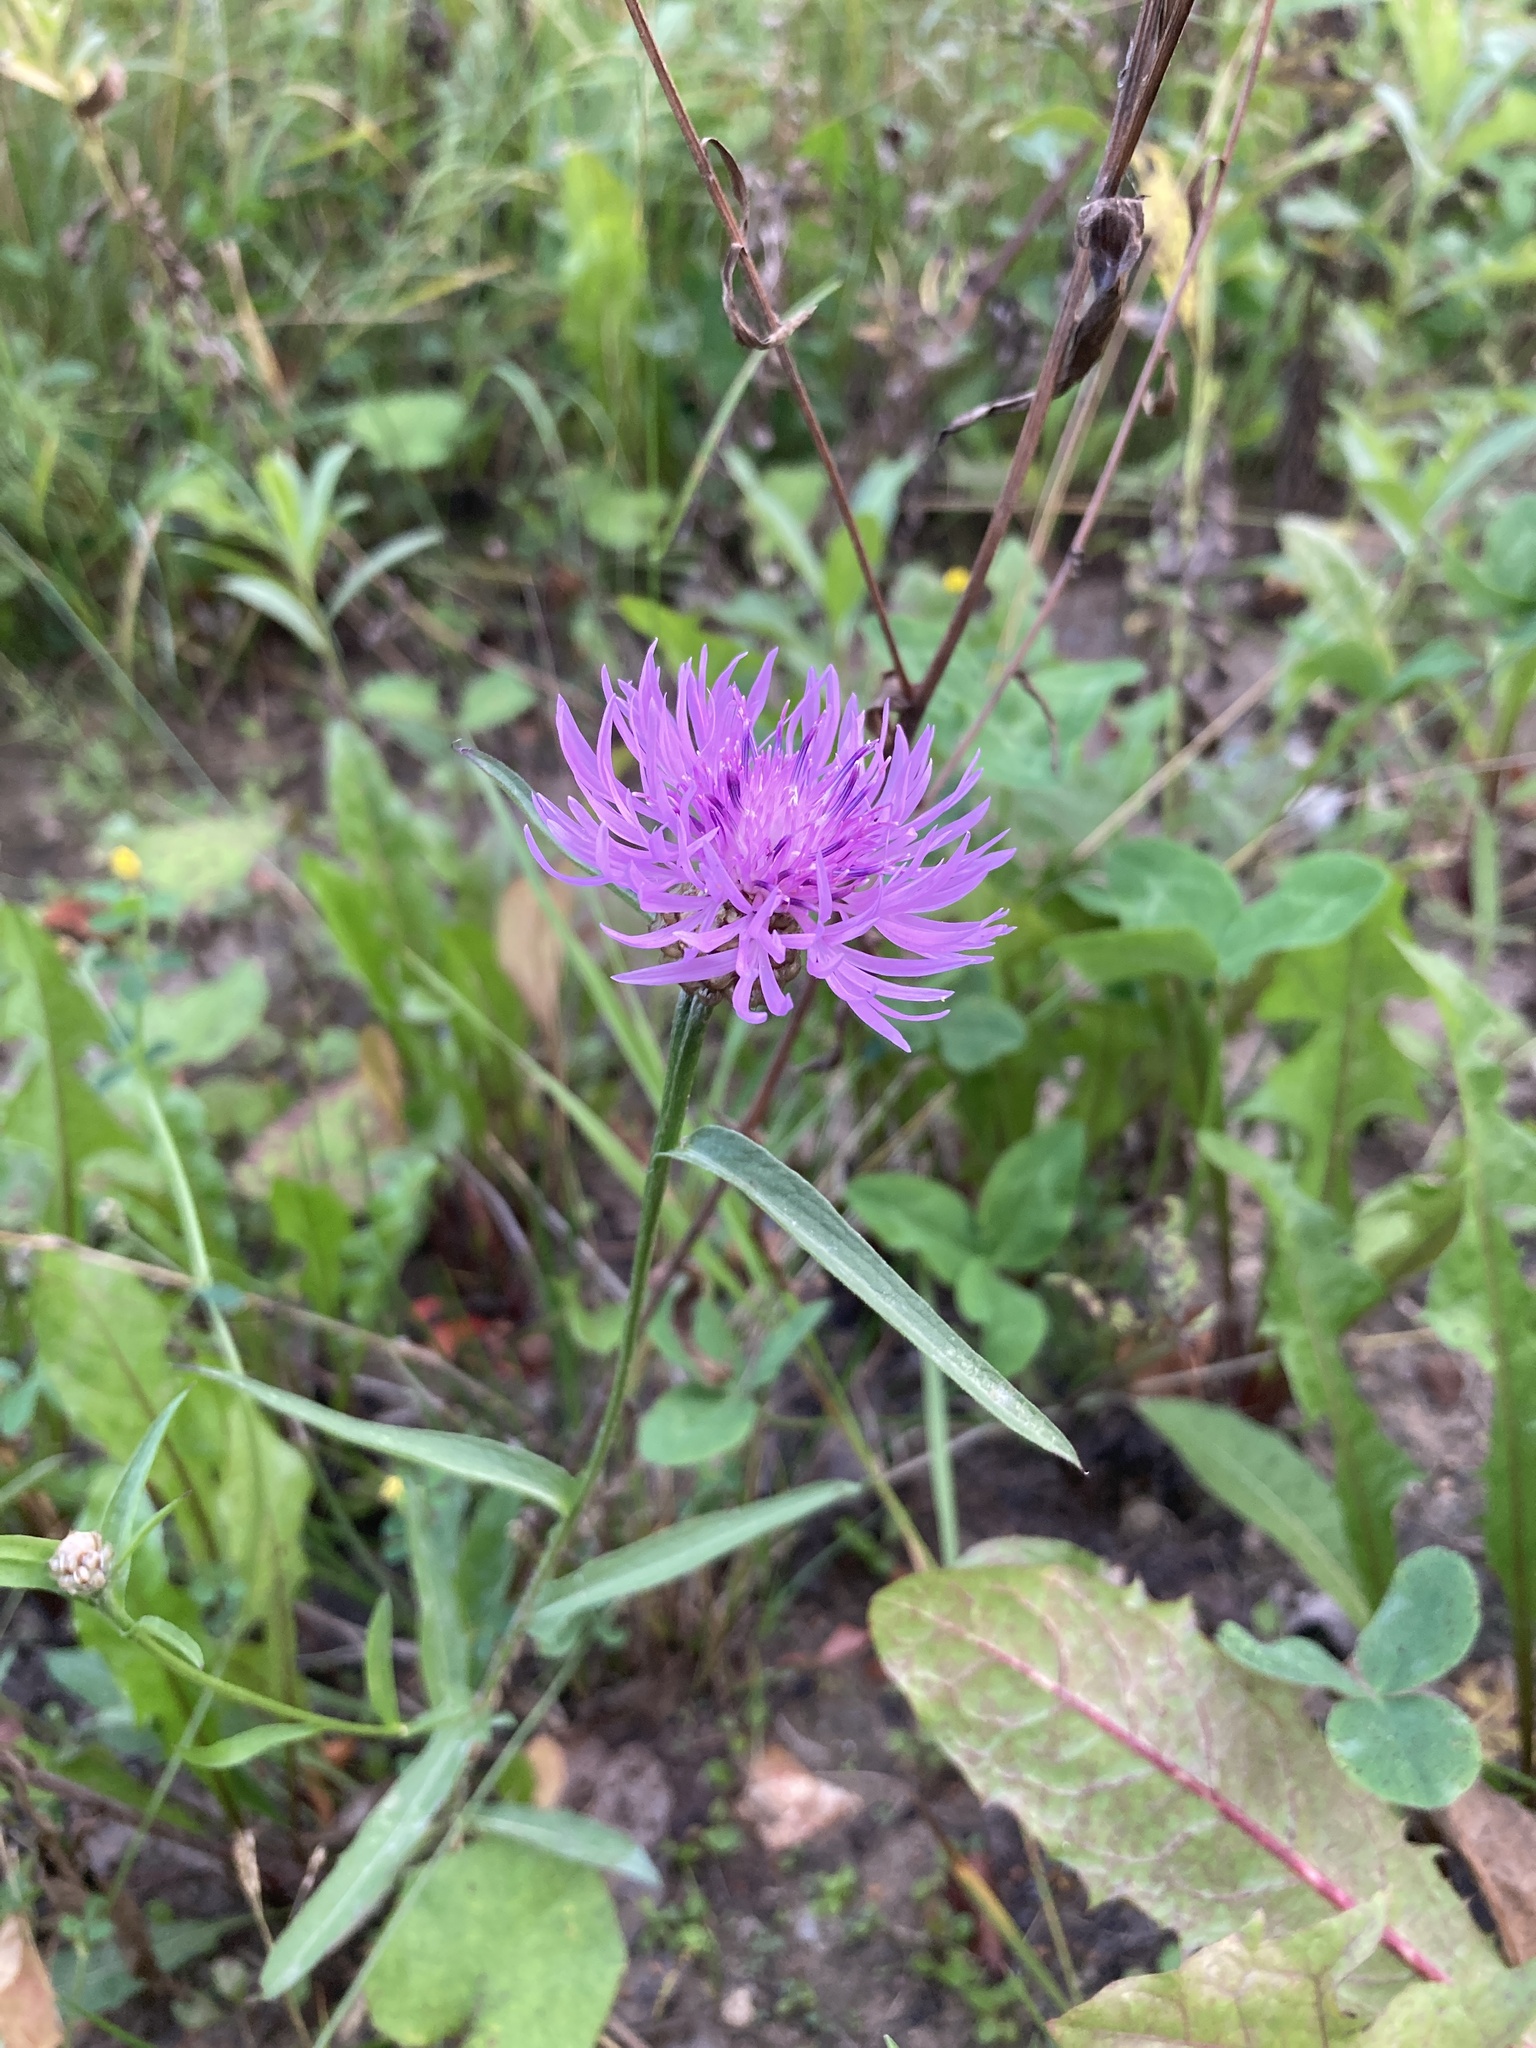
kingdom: Plantae
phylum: Tracheophyta
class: Magnoliopsida
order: Asterales
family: Asteraceae
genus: Centaurea
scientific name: Centaurea jacea
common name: Brown knapweed
